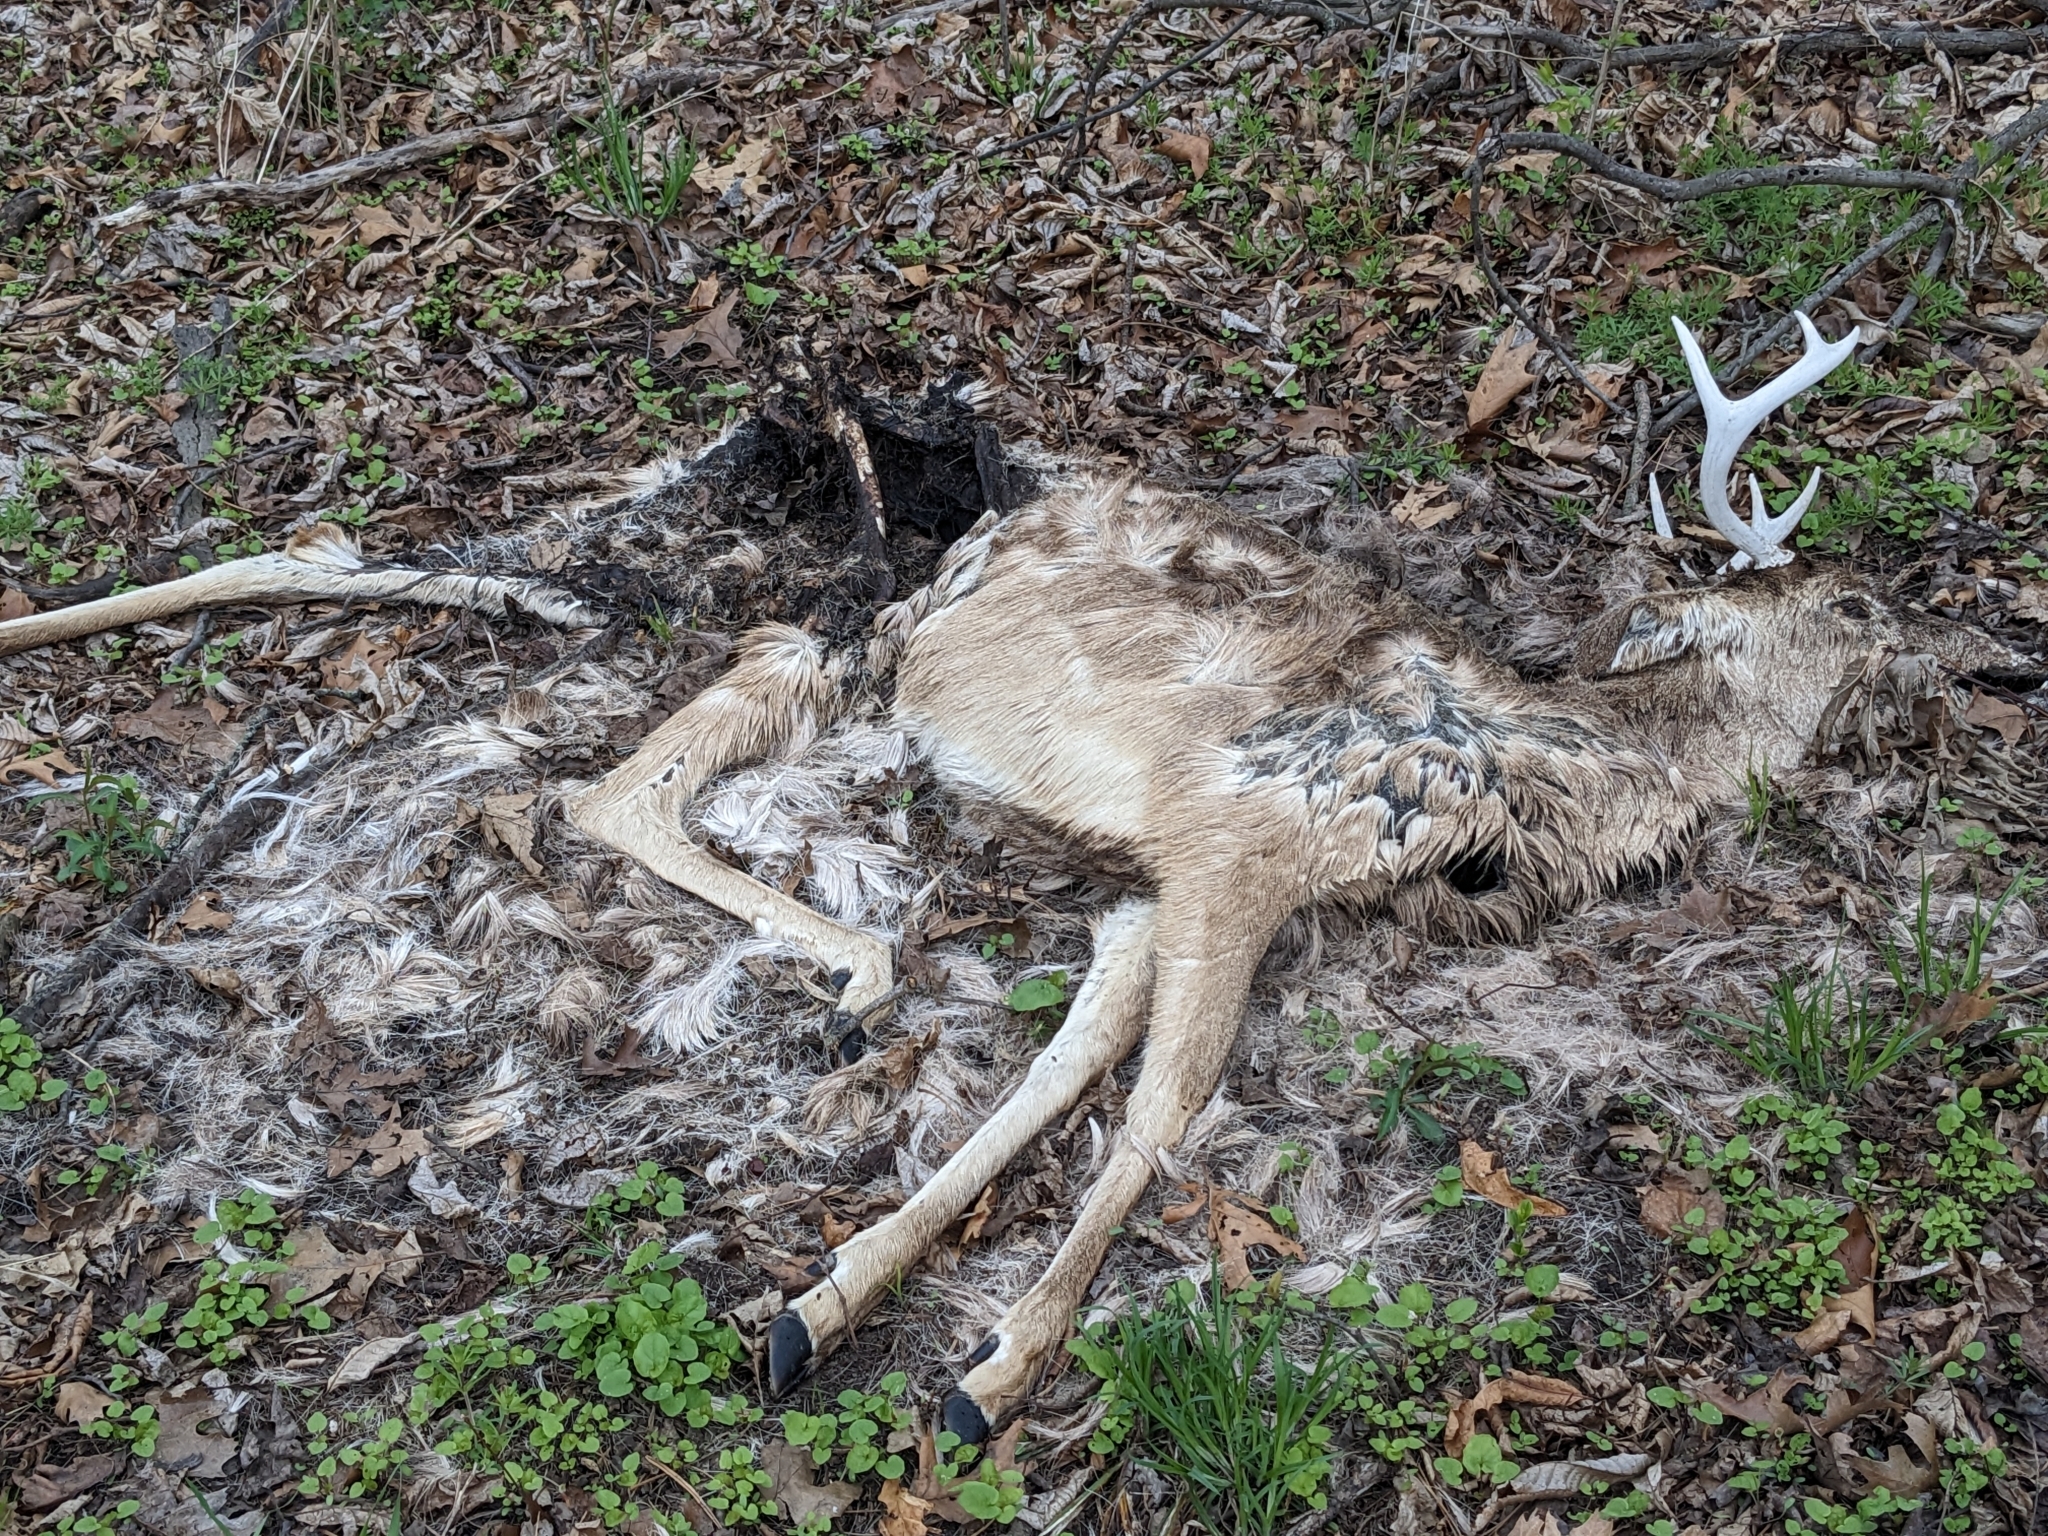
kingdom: Animalia
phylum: Chordata
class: Mammalia
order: Artiodactyla
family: Cervidae
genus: Odocoileus
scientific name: Odocoileus virginianus
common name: White-tailed deer
